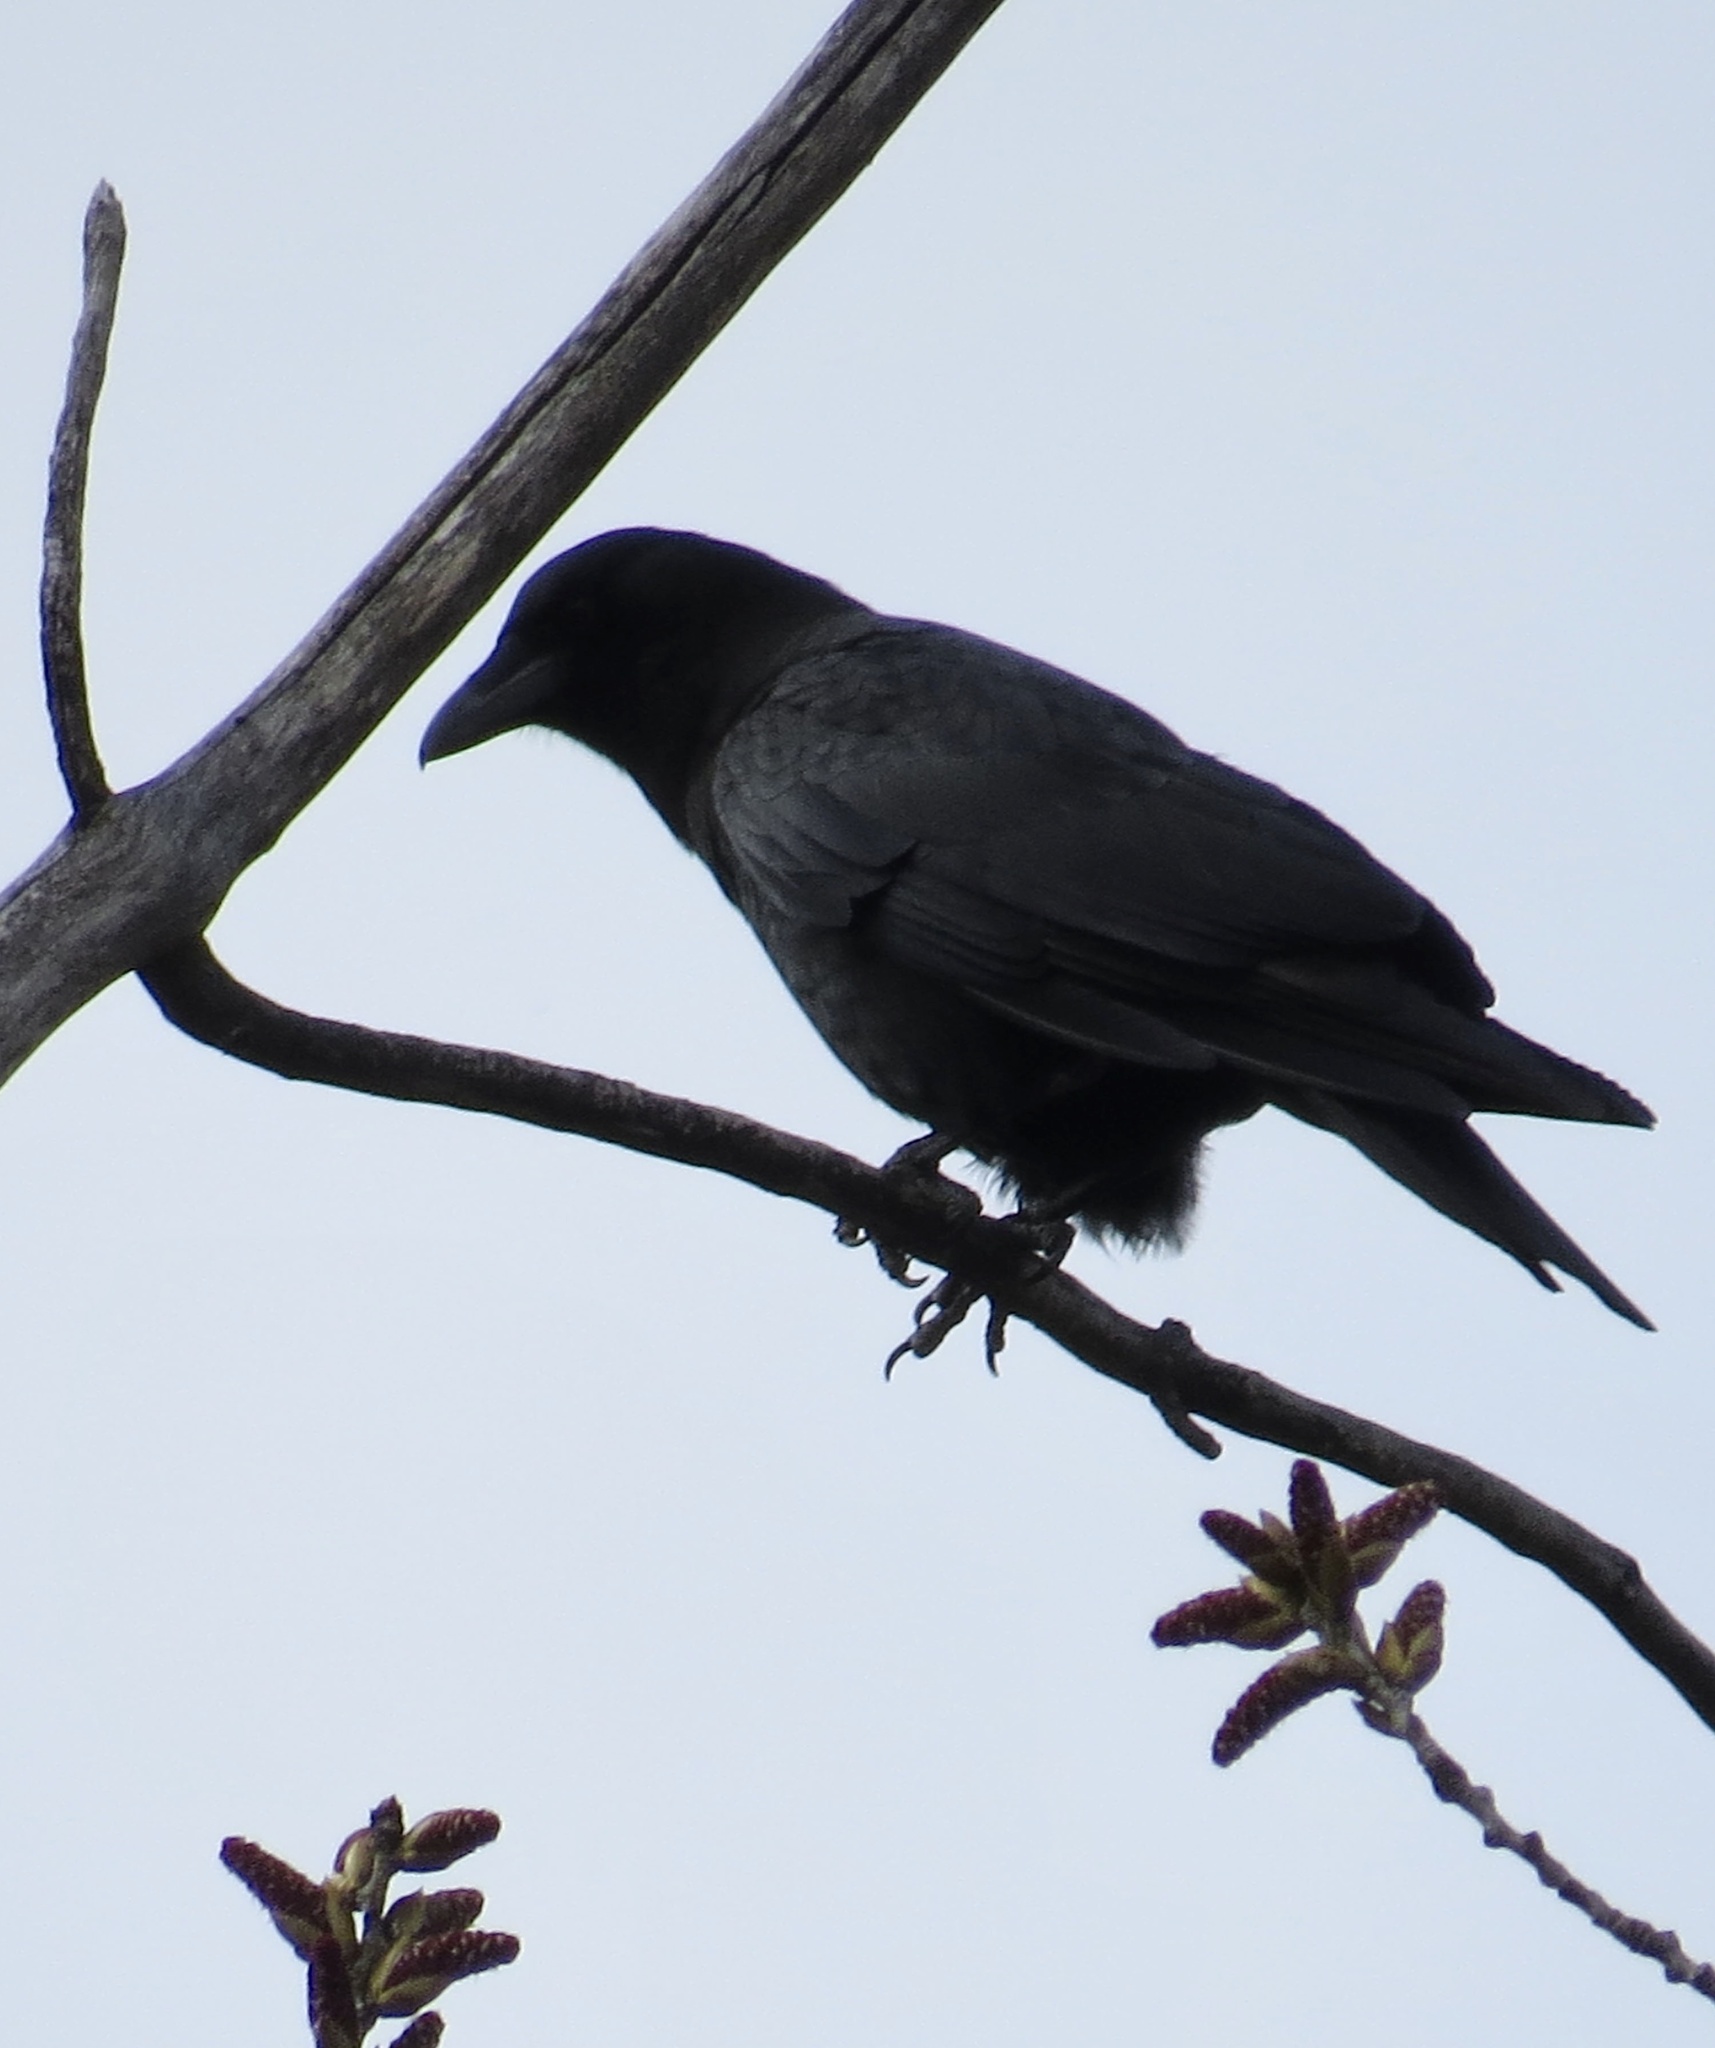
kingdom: Animalia
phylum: Chordata
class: Aves
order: Passeriformes
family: Corvidae
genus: Corvus
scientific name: Corvus brachyrhynchos
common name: American crow
